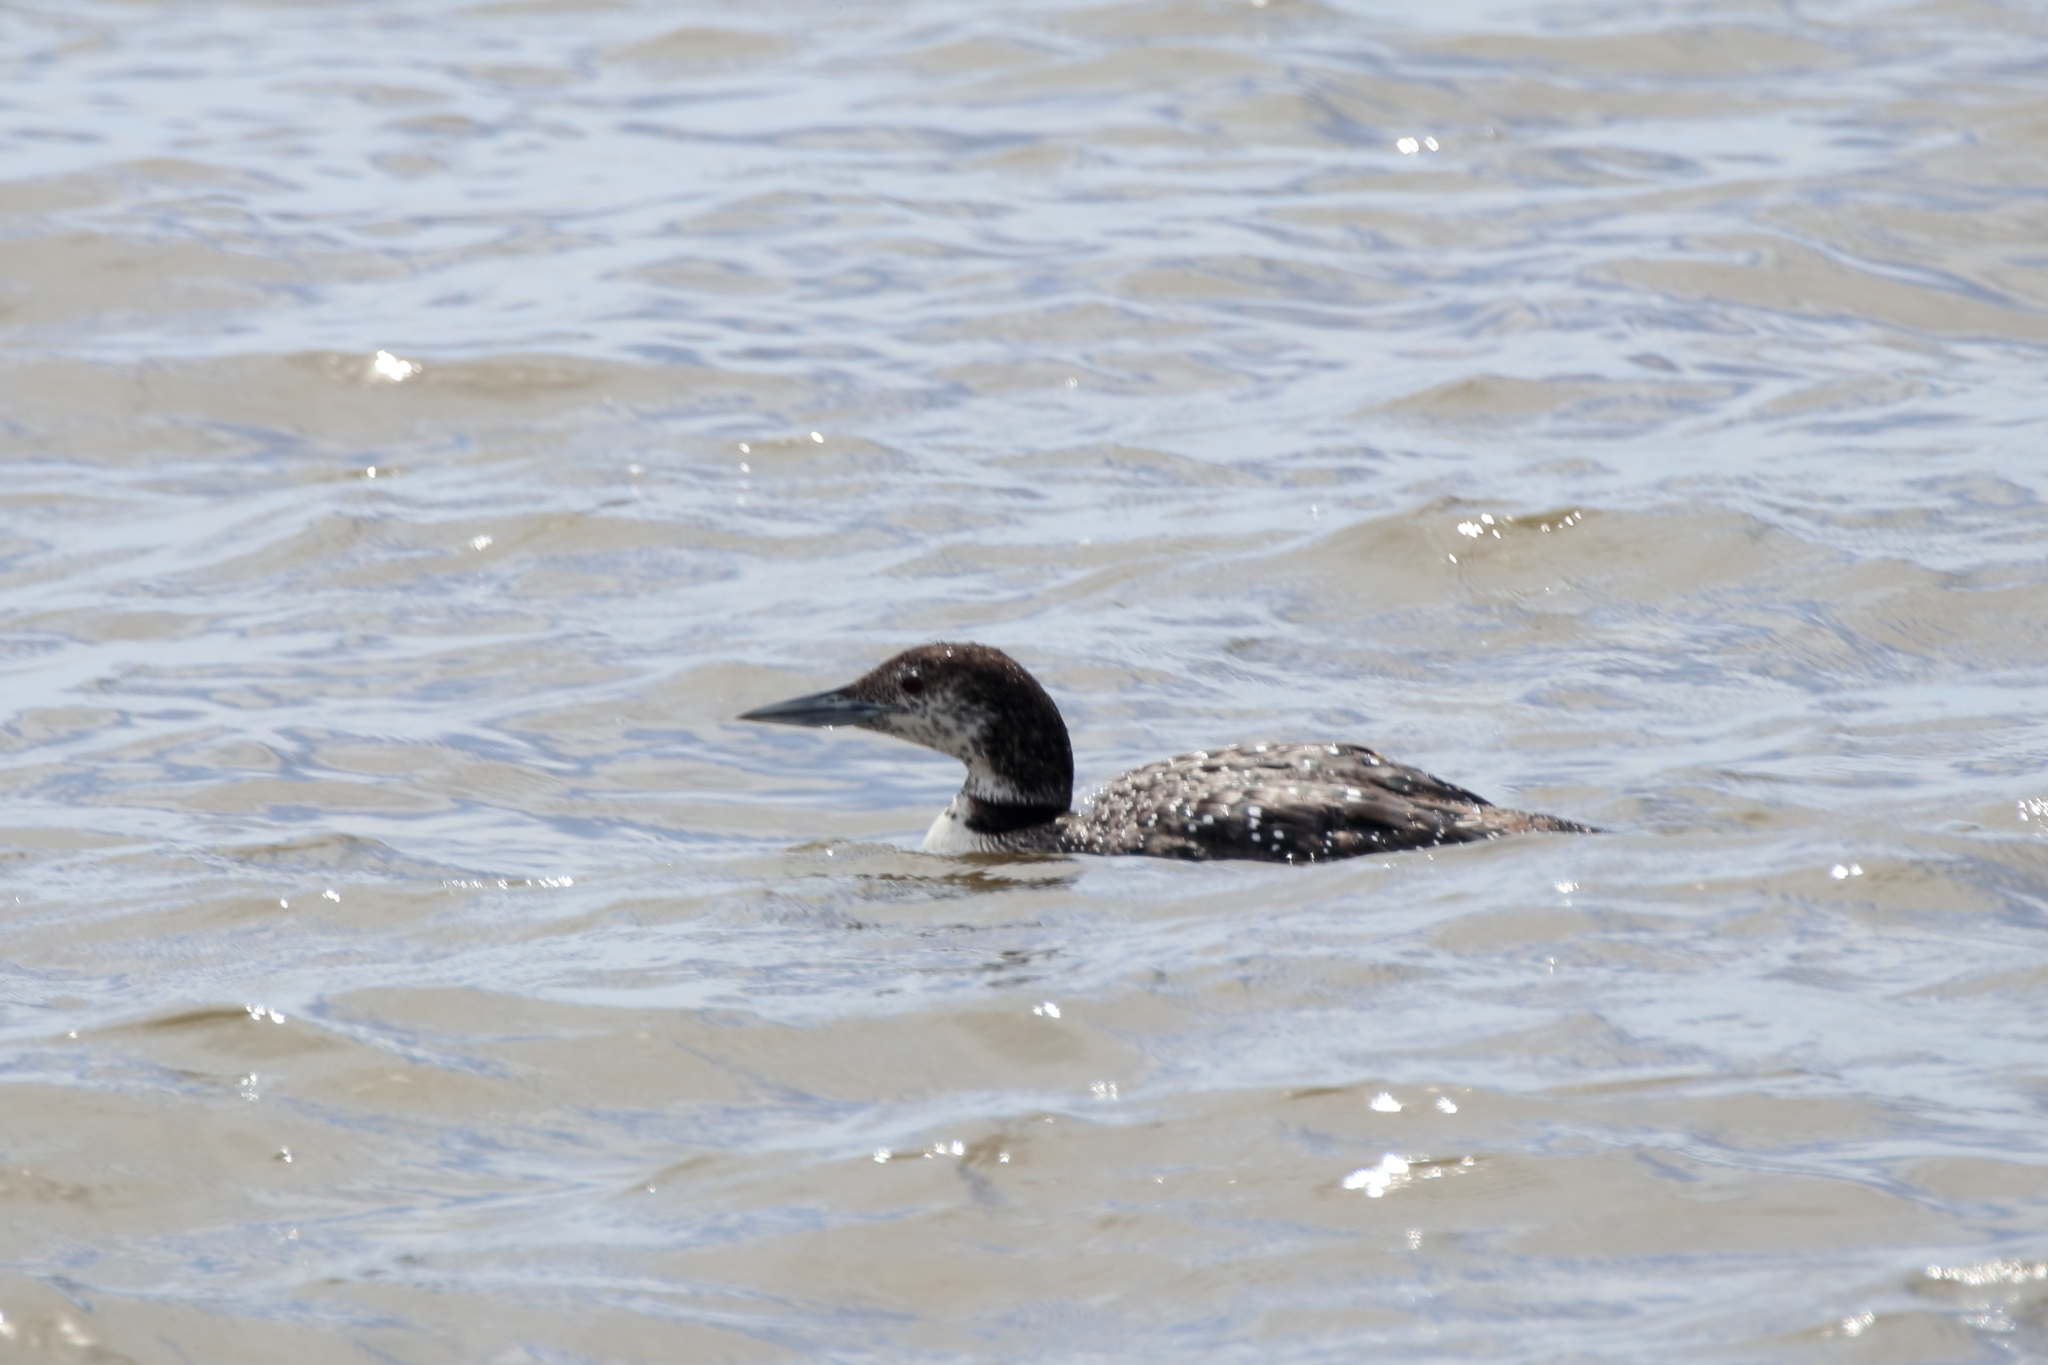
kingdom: Animalia
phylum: Chordata
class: Aves
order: Gaviiformes
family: Gaviidae
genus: Gavia
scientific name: Gavia immer
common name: Common loon
